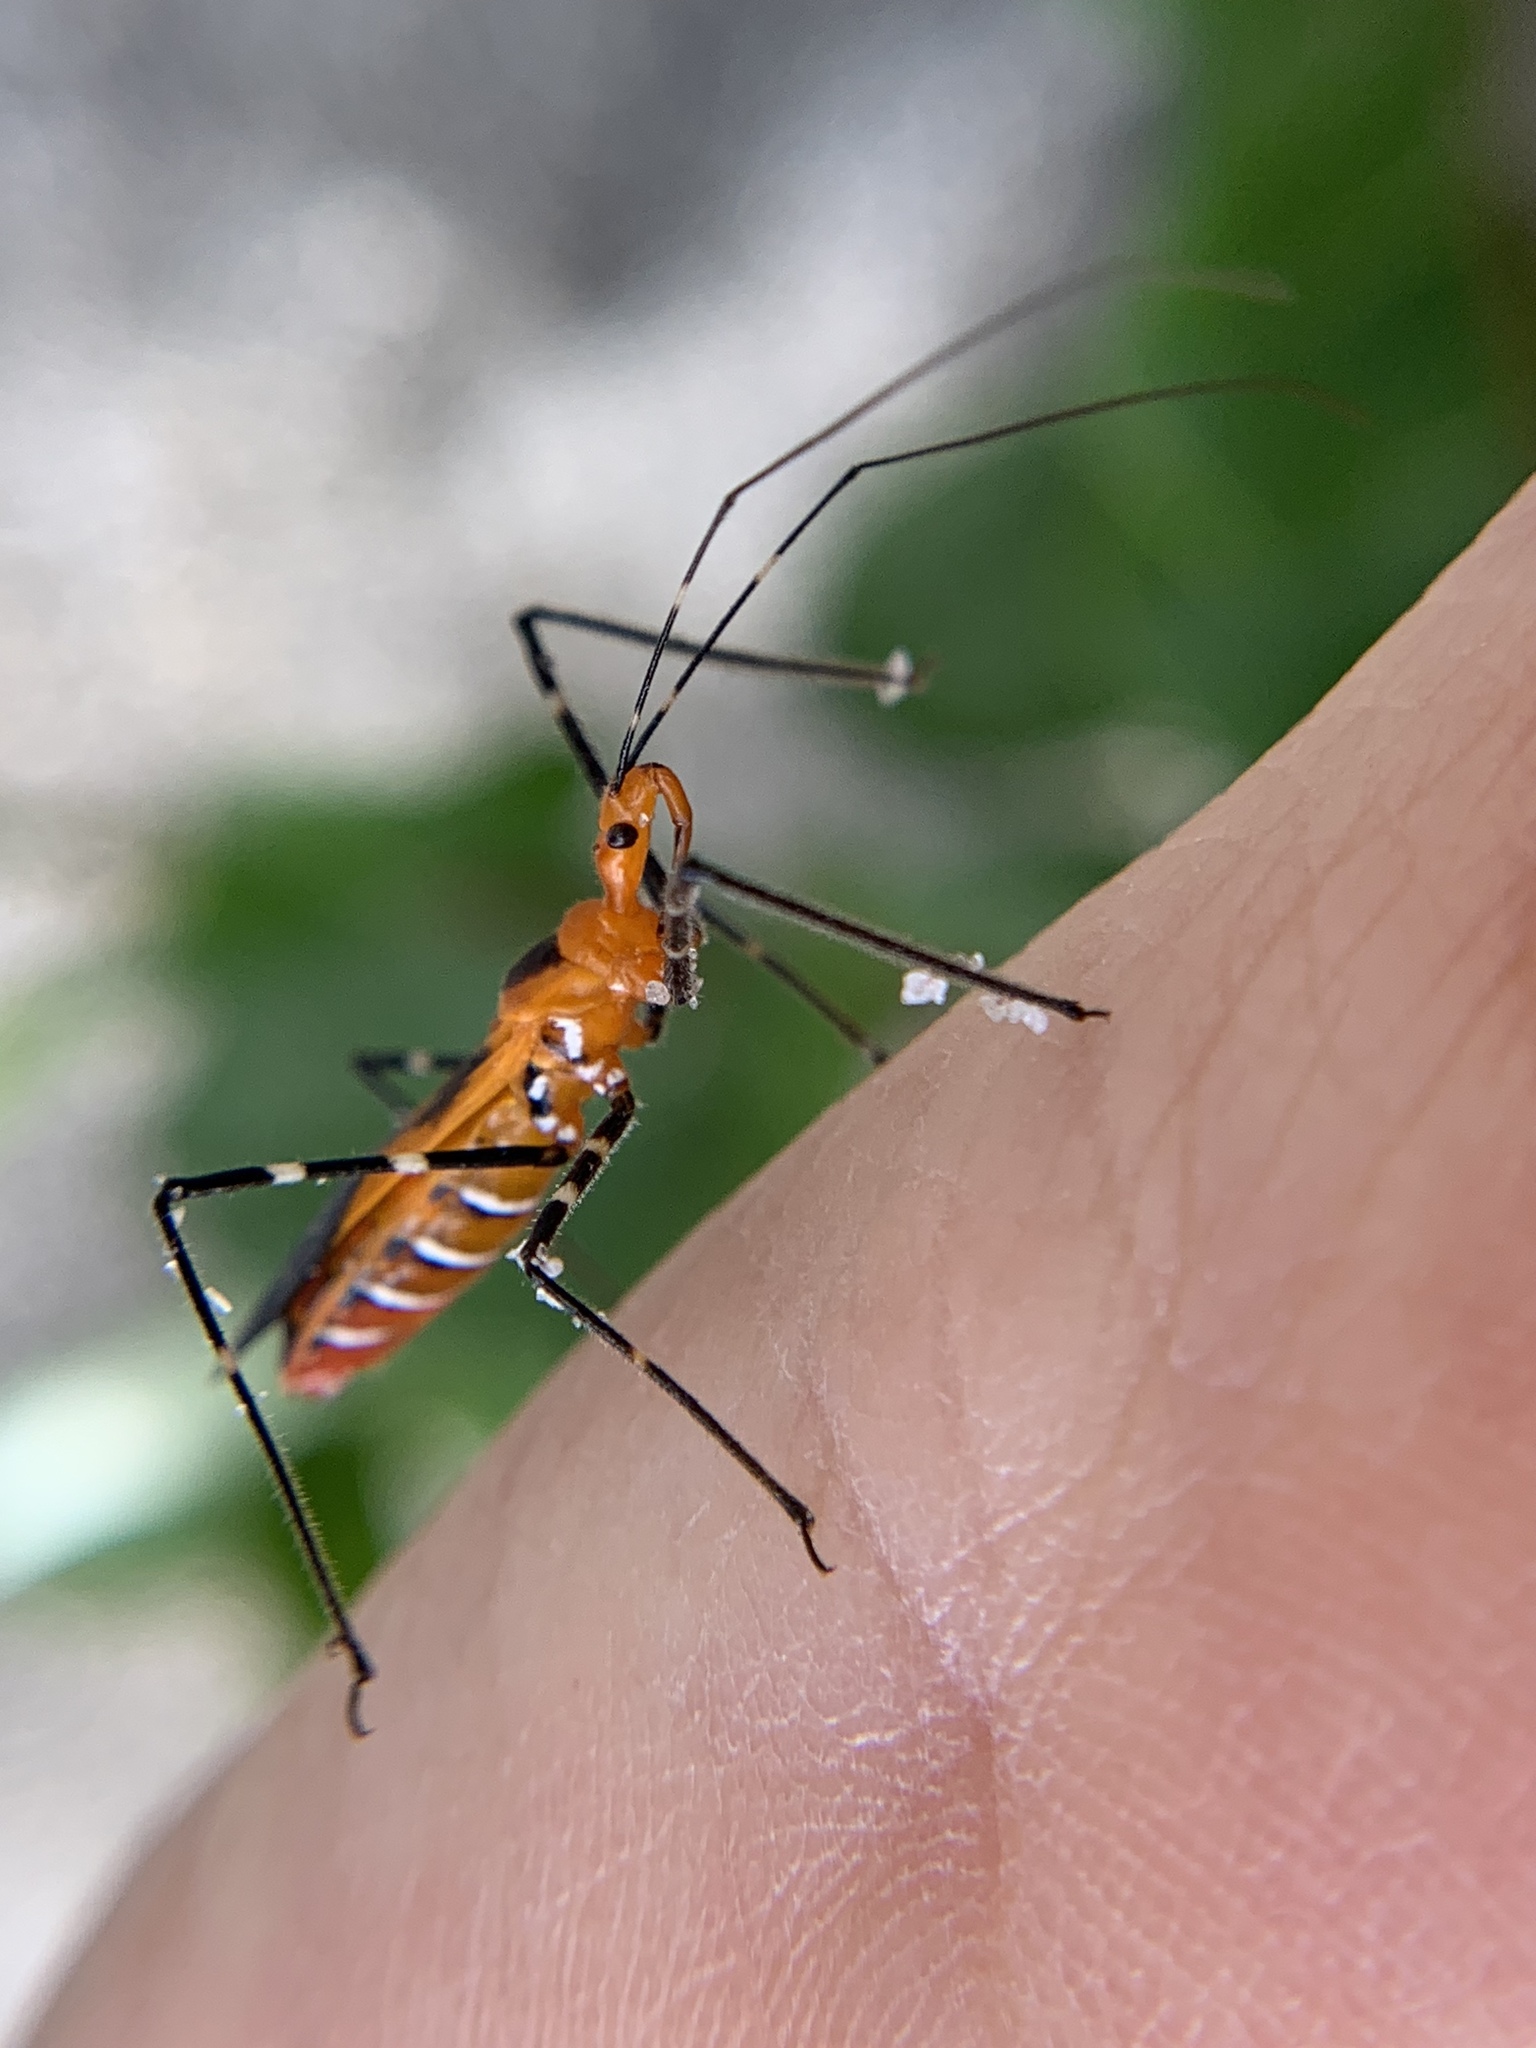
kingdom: Animalia
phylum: Arthropoda
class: Insecta
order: Hemiptera
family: Reduviidae
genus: Zelus
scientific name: Zelus longipes
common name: Milkweed assassin bug
